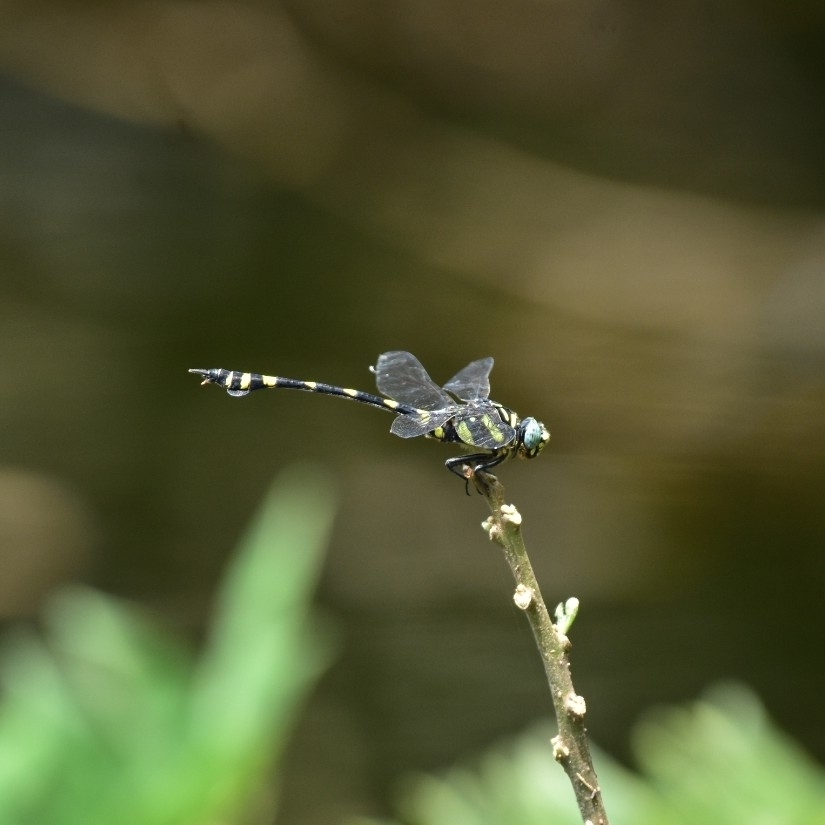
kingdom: Animalia
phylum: Arthropoda
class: Insecta
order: Odonata
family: Gomphidae
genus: Ictinogomphus
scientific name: Ictinogomphus rapax
